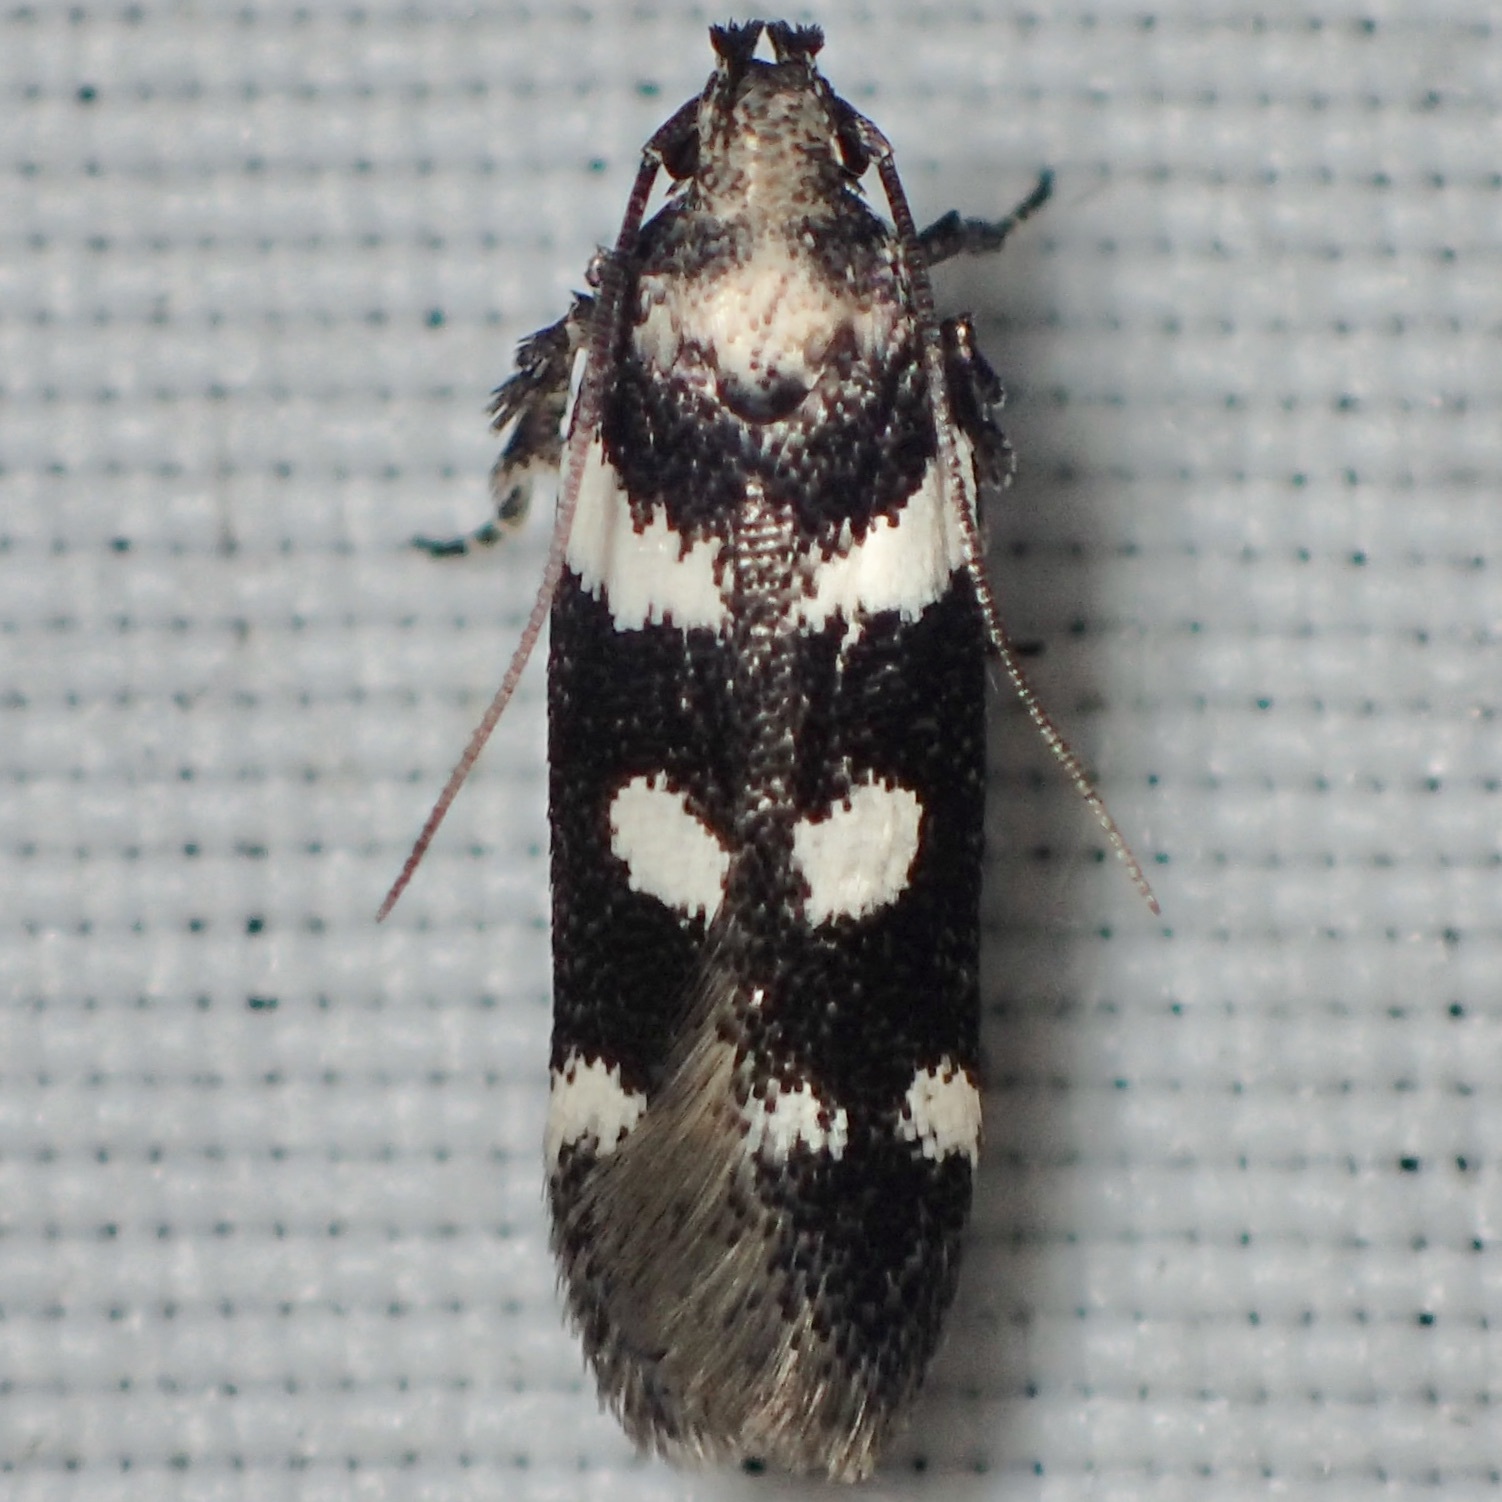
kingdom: Animalia
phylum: Arthropoda
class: Insecta
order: Lepidoptera
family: Gelechiidae
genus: Filatima
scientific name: Filatima arizonella
